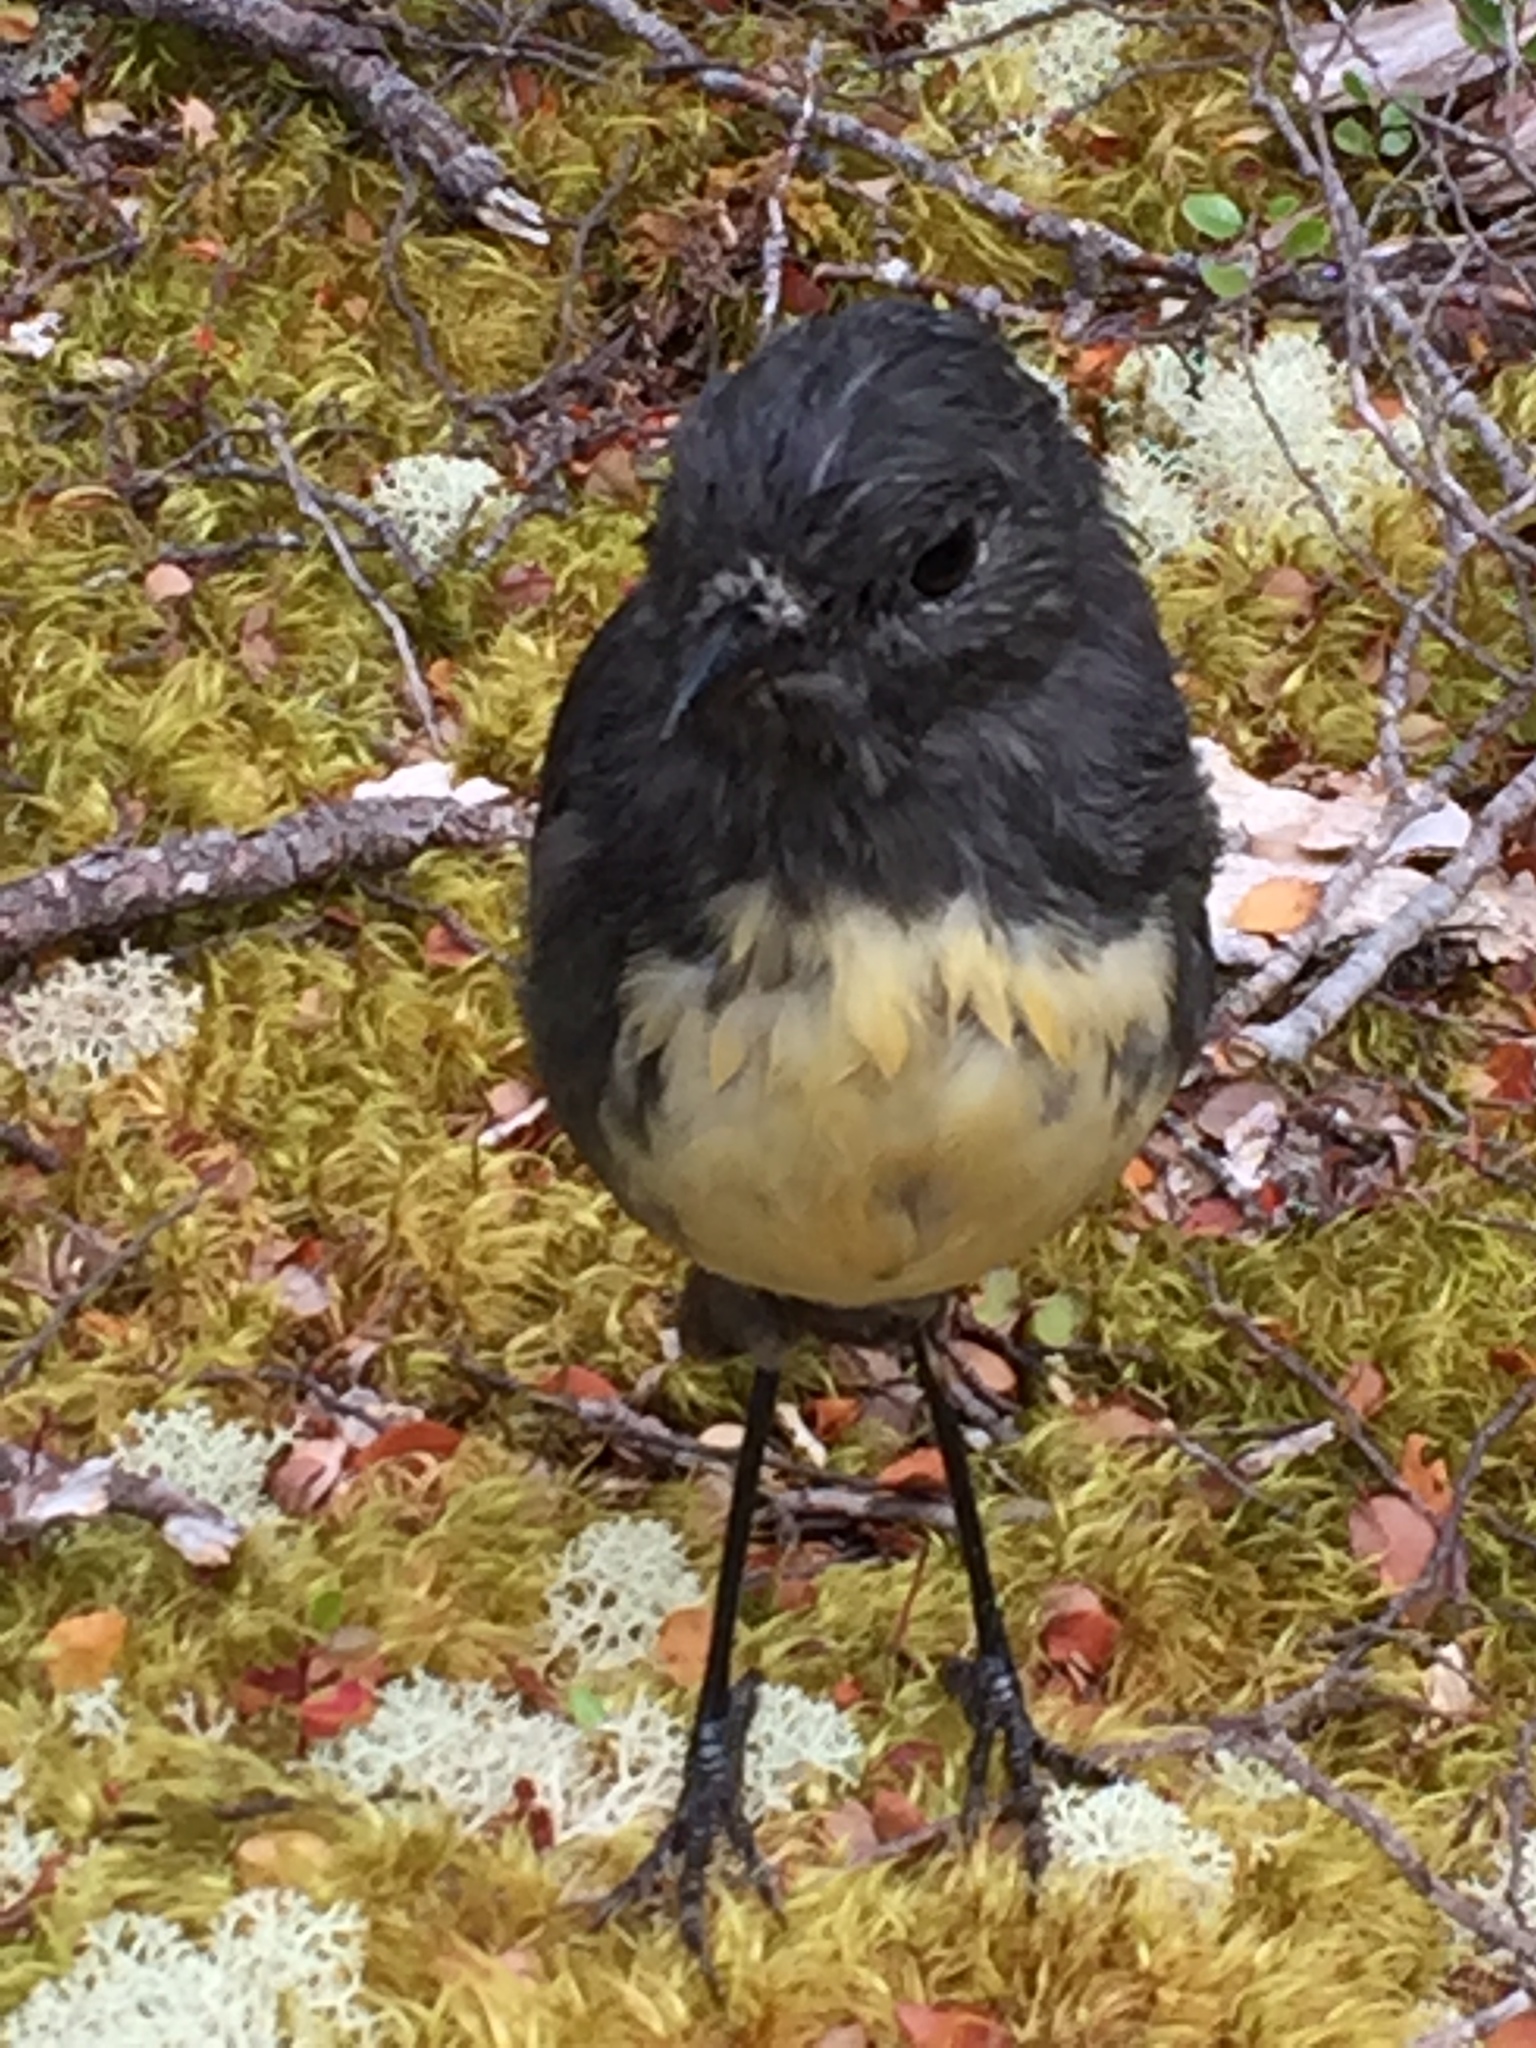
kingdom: Animalia
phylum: Chordata
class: Aves
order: Passeriformes
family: Petroicidae
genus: Petroica
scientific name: Petroica australis
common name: New zealand robin
